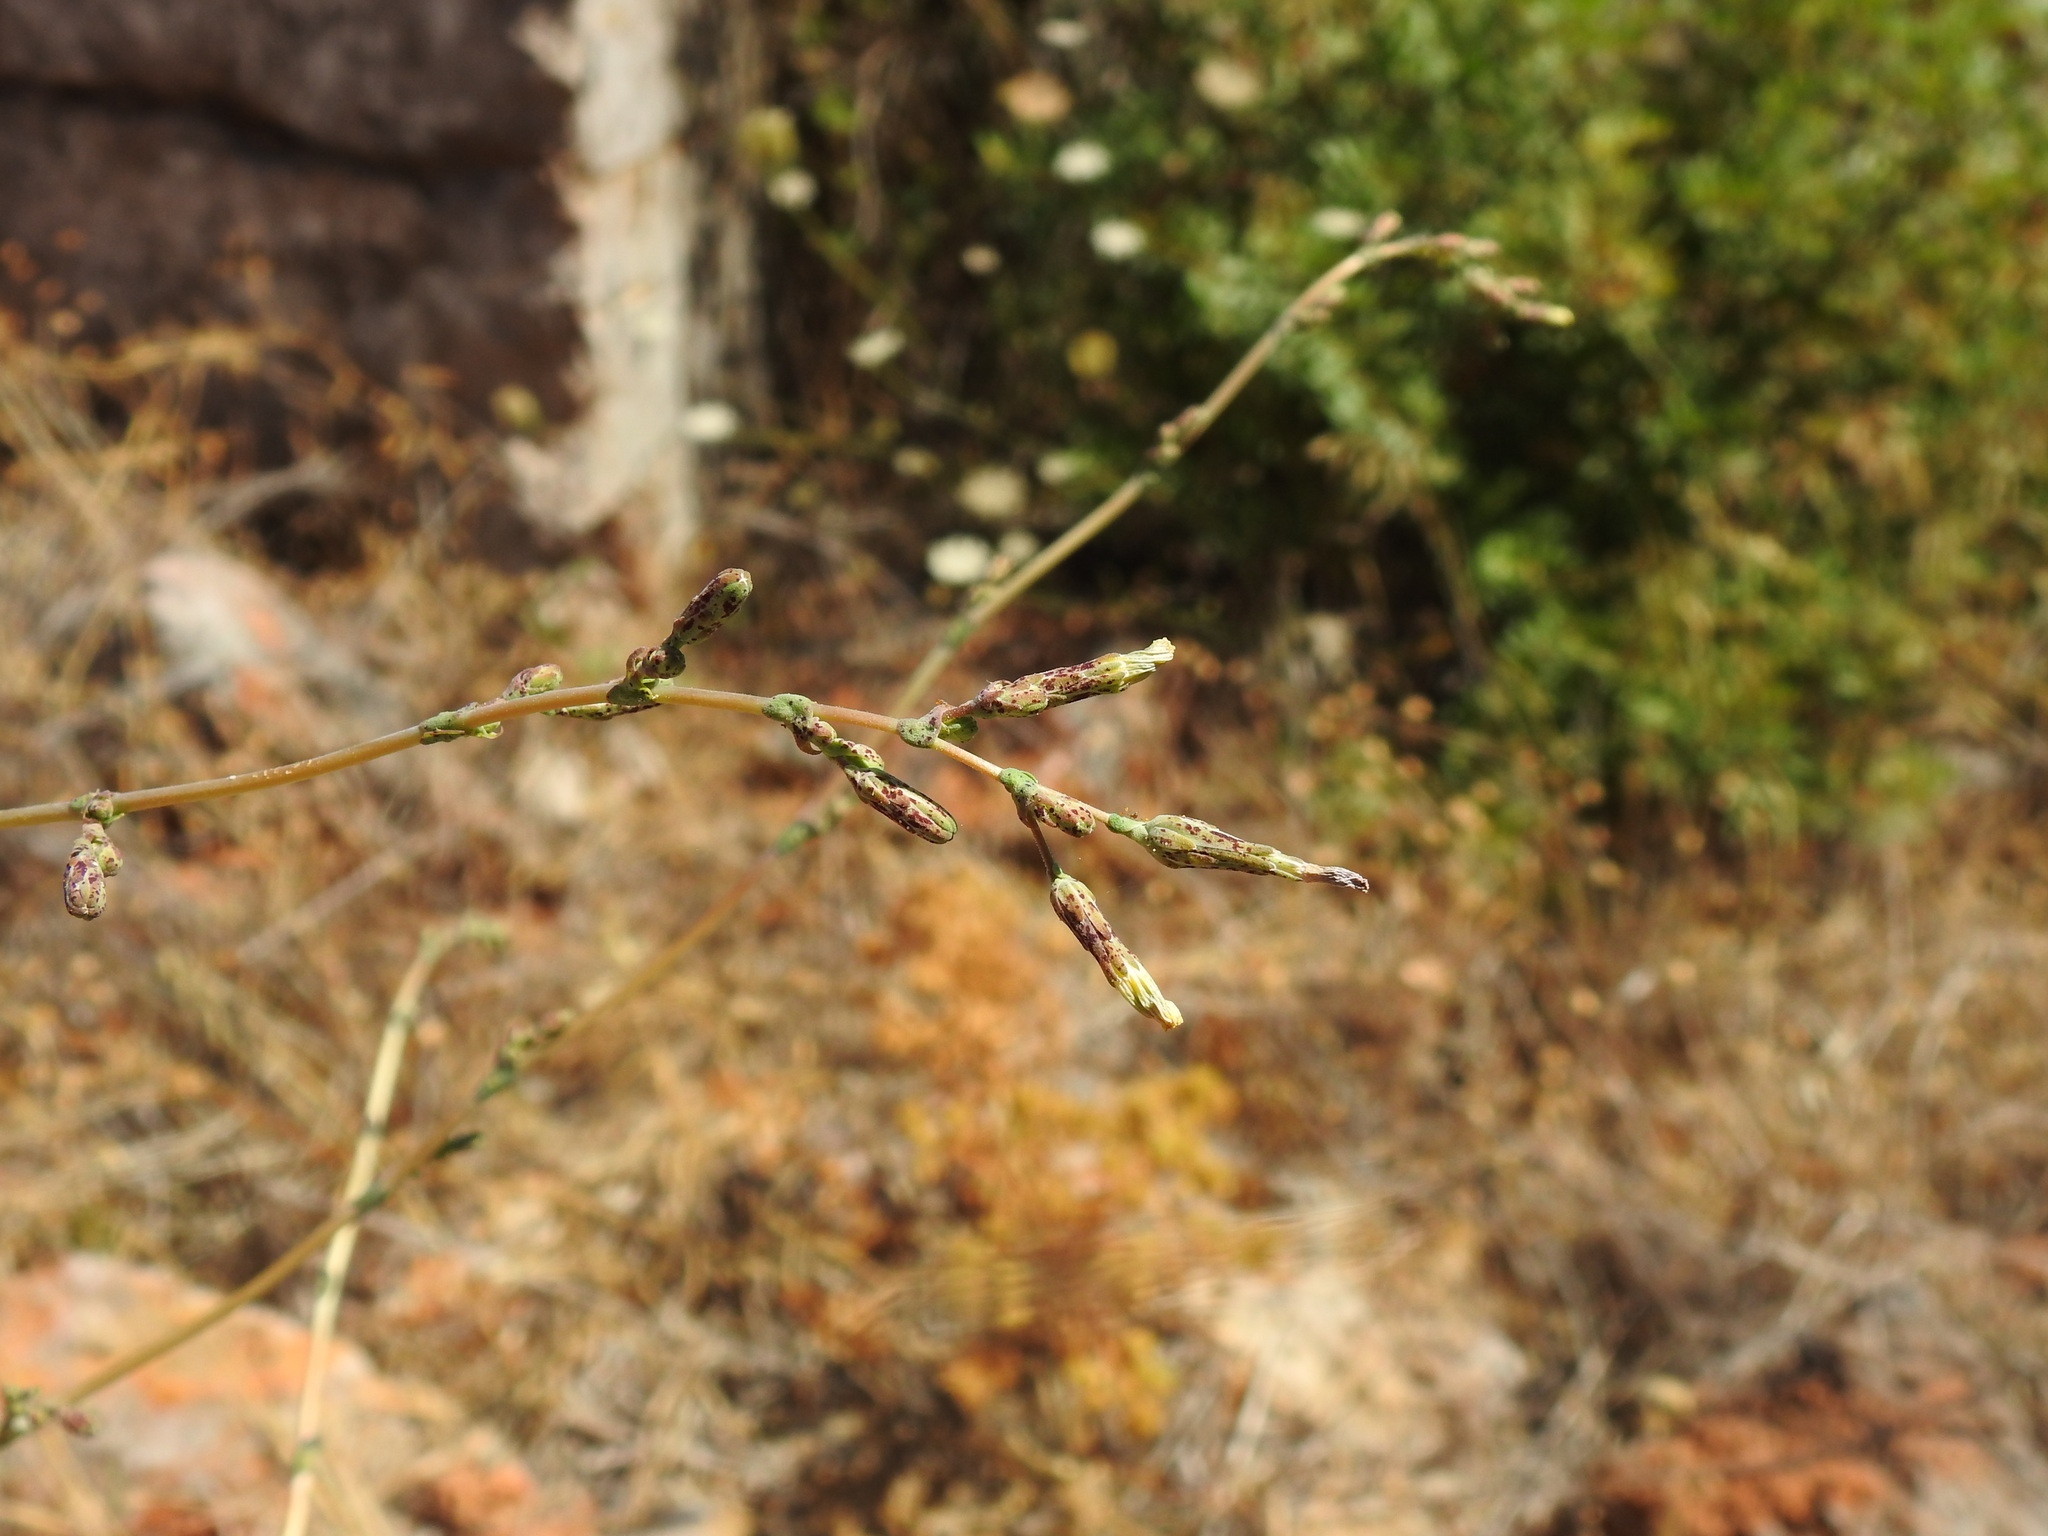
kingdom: Plantae
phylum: Tracheophyta
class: Magnoliopsida
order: Asterales
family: Asteraceae
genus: Lactuca
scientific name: Lactuca serriola
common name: Prickly lettuce
